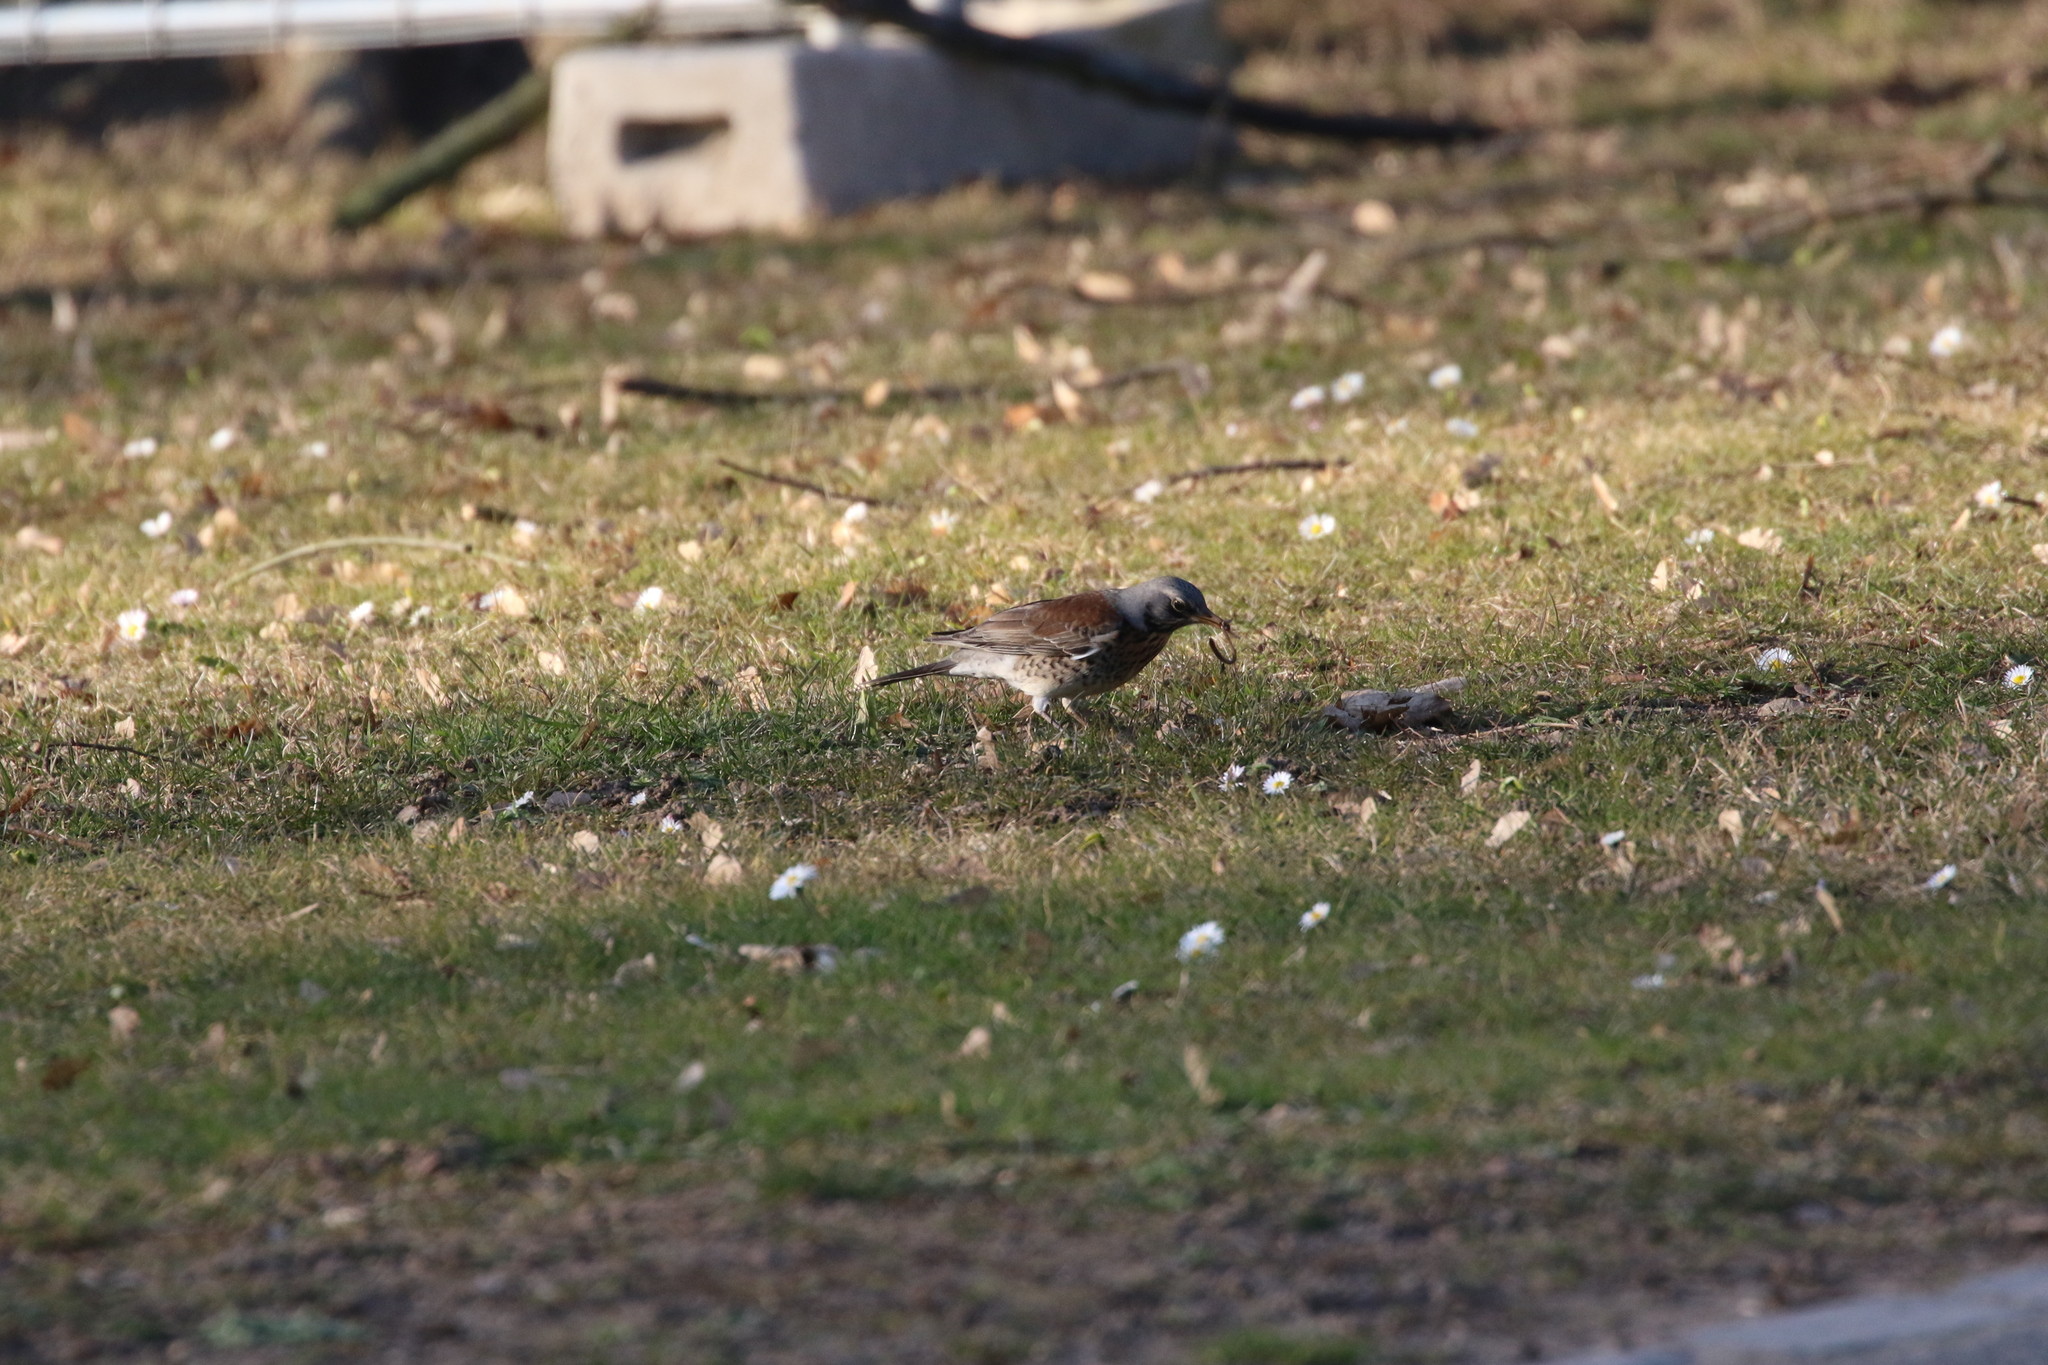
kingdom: Animalia
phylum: Chordata
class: Aves
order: Passeriformes
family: Turdidae
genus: Turdus
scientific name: Turdus pilaris
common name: Fieldfare
